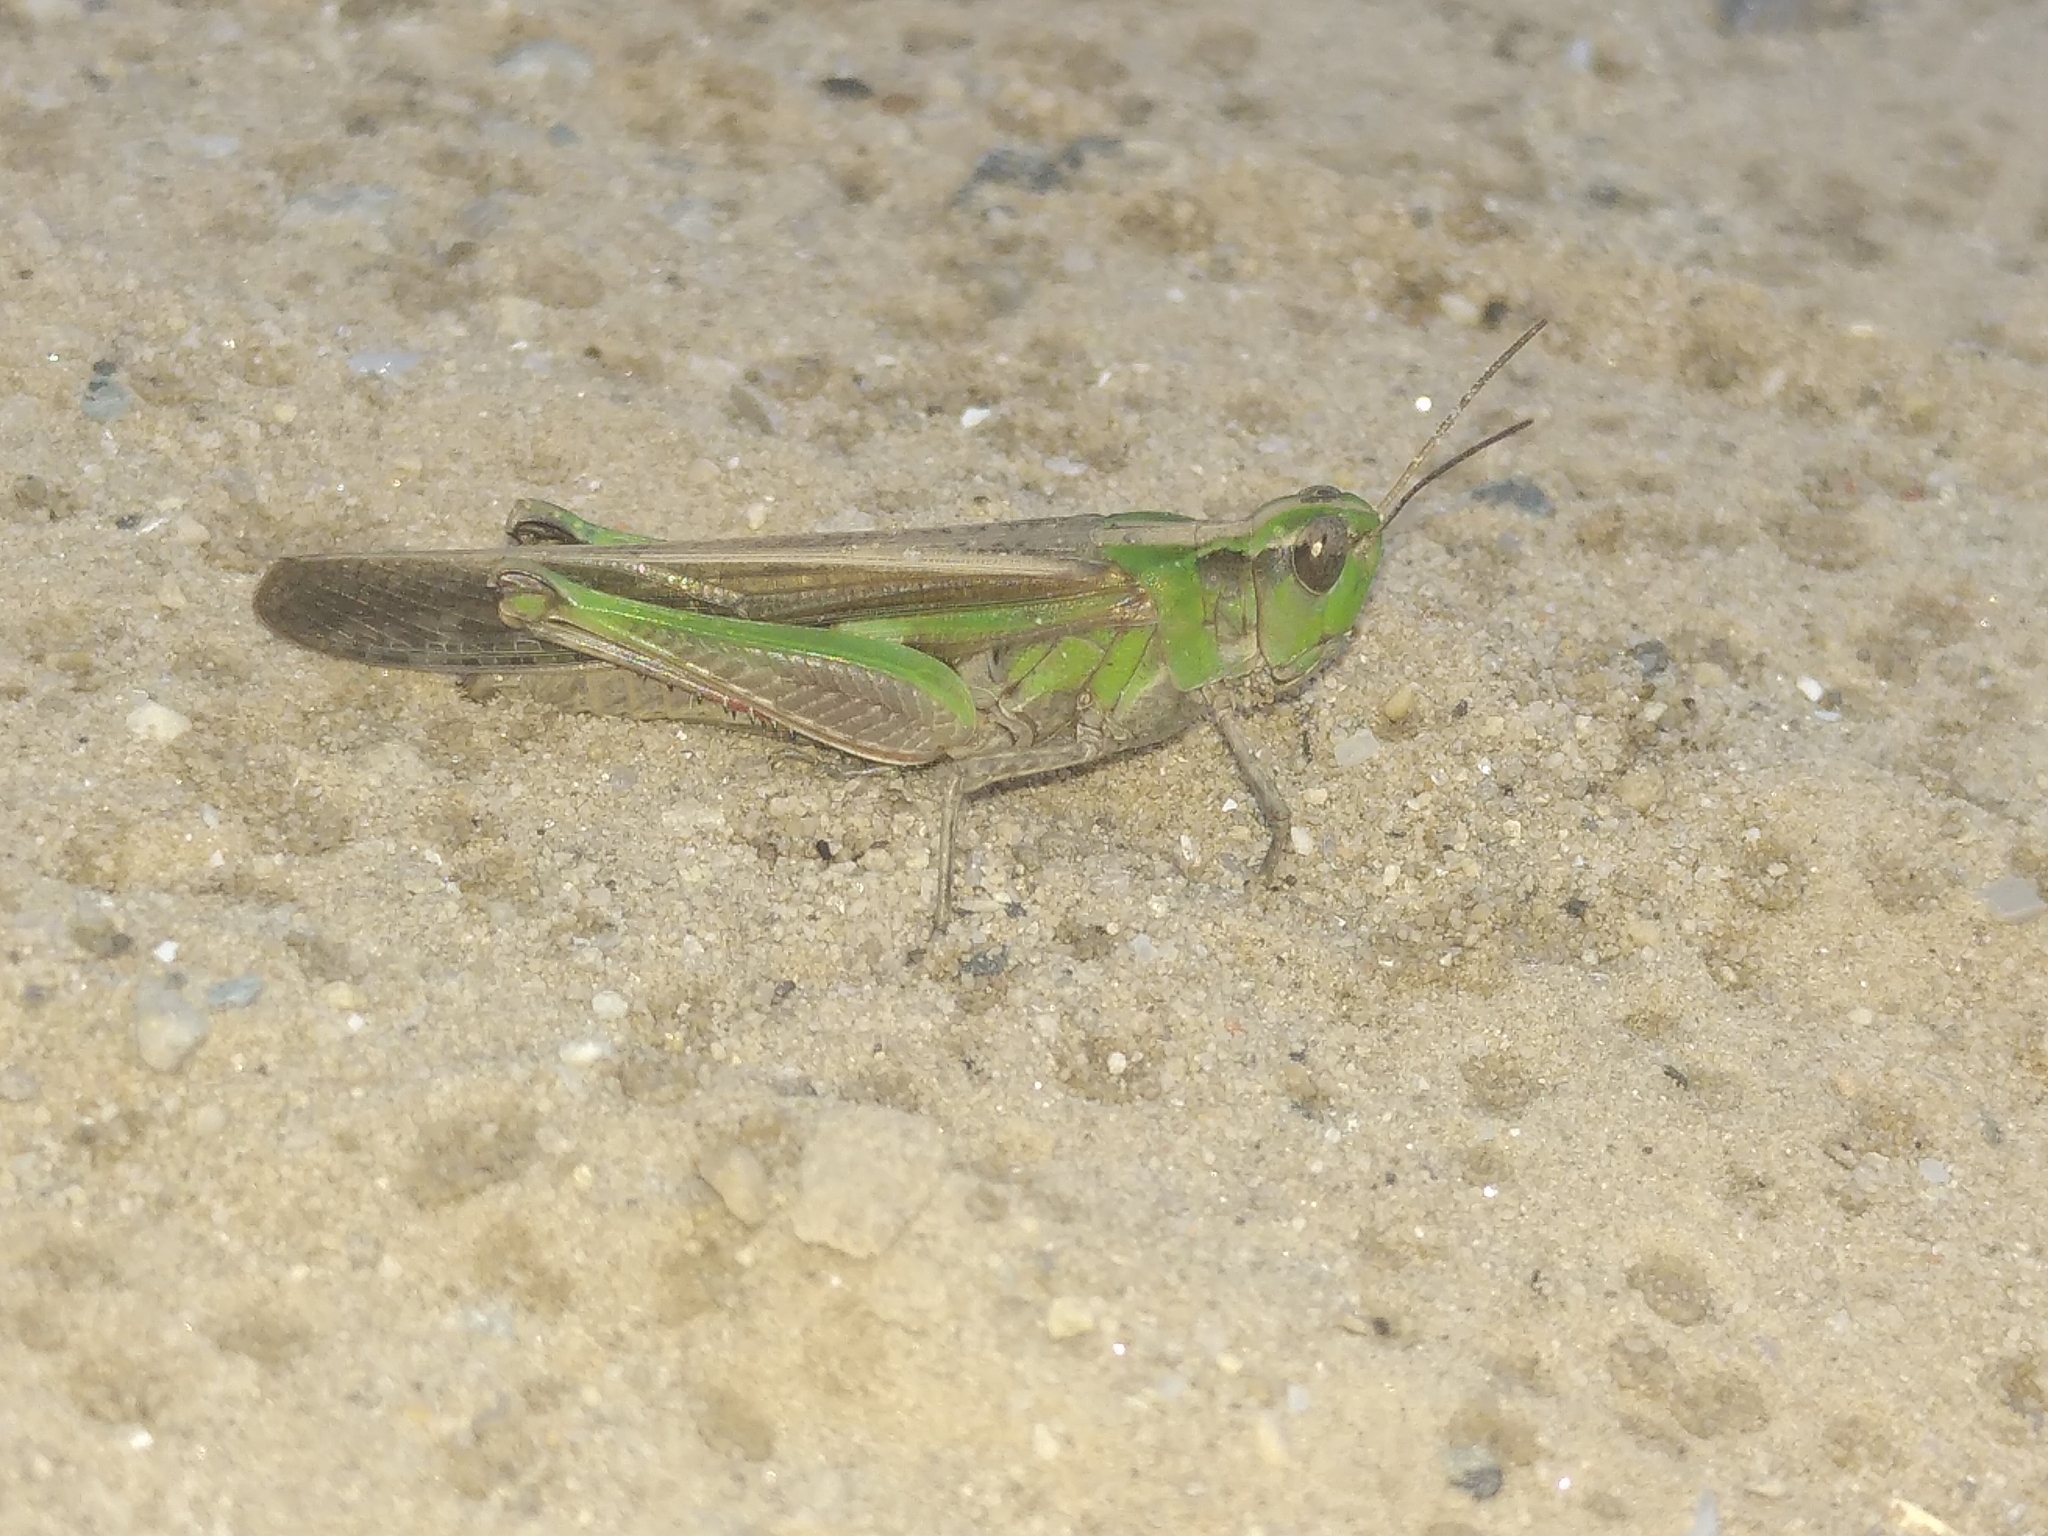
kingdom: Animalia
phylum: Arthropoda
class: Insecta
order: Orthoptera
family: Acrididae
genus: Aiolopus
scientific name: Aiolopus puissanti
